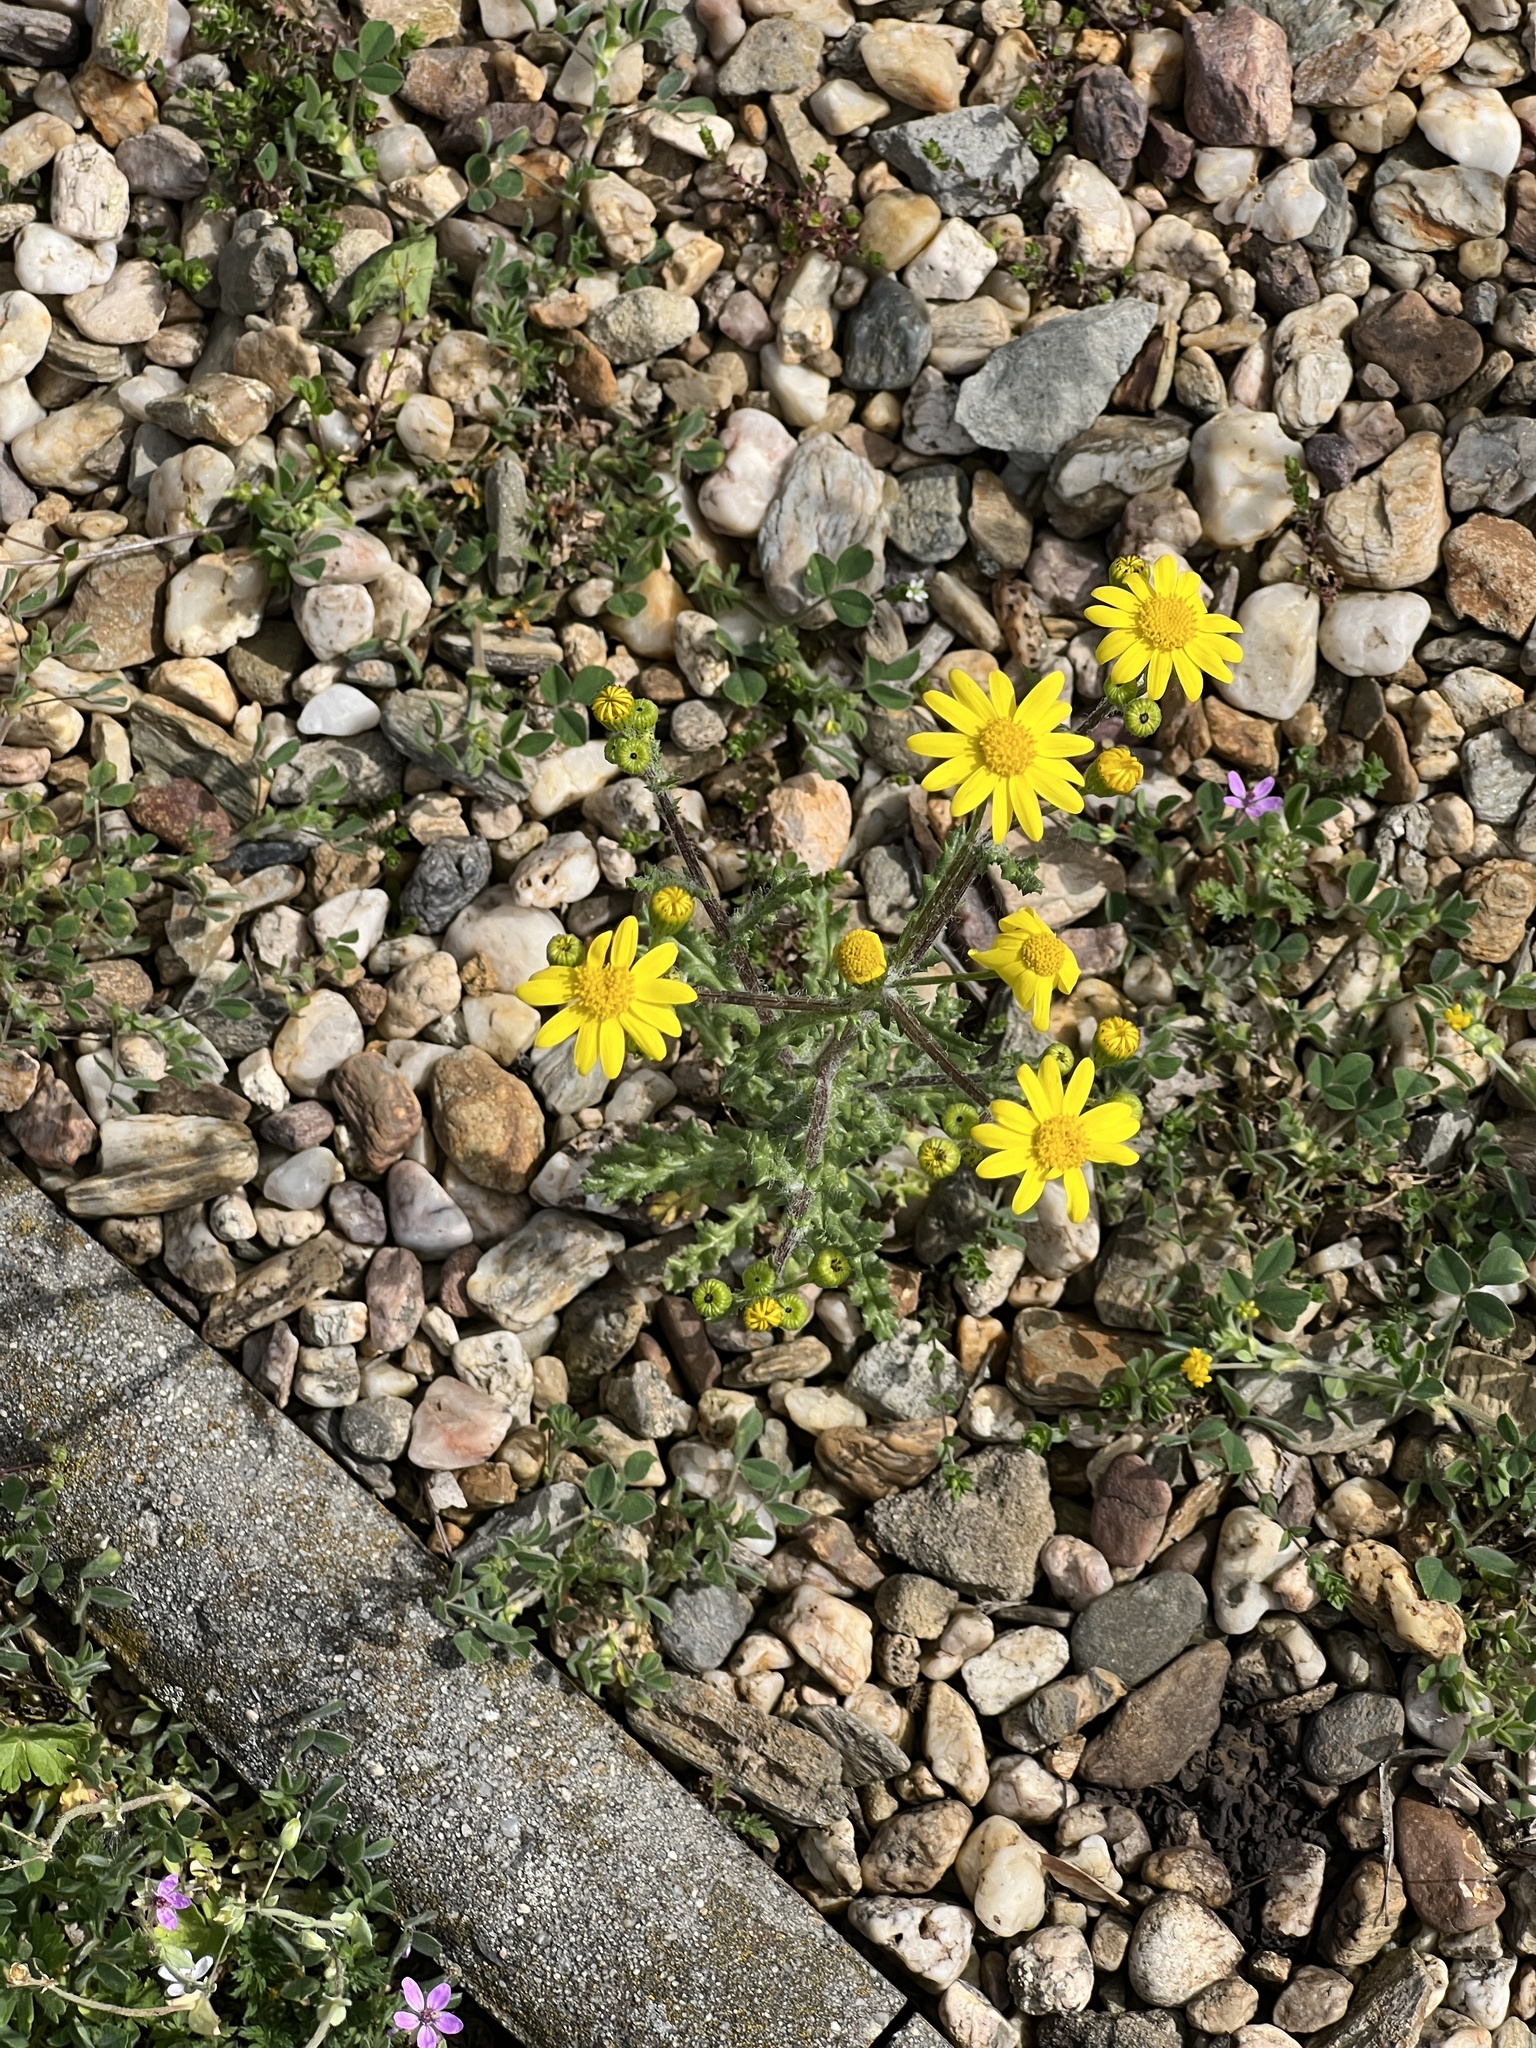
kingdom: Plantae
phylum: Tracheophyta
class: Magnoliopsida
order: Asterales
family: Asteraceae
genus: Senecio
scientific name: Senecio vernalis
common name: Eastern groundsel
